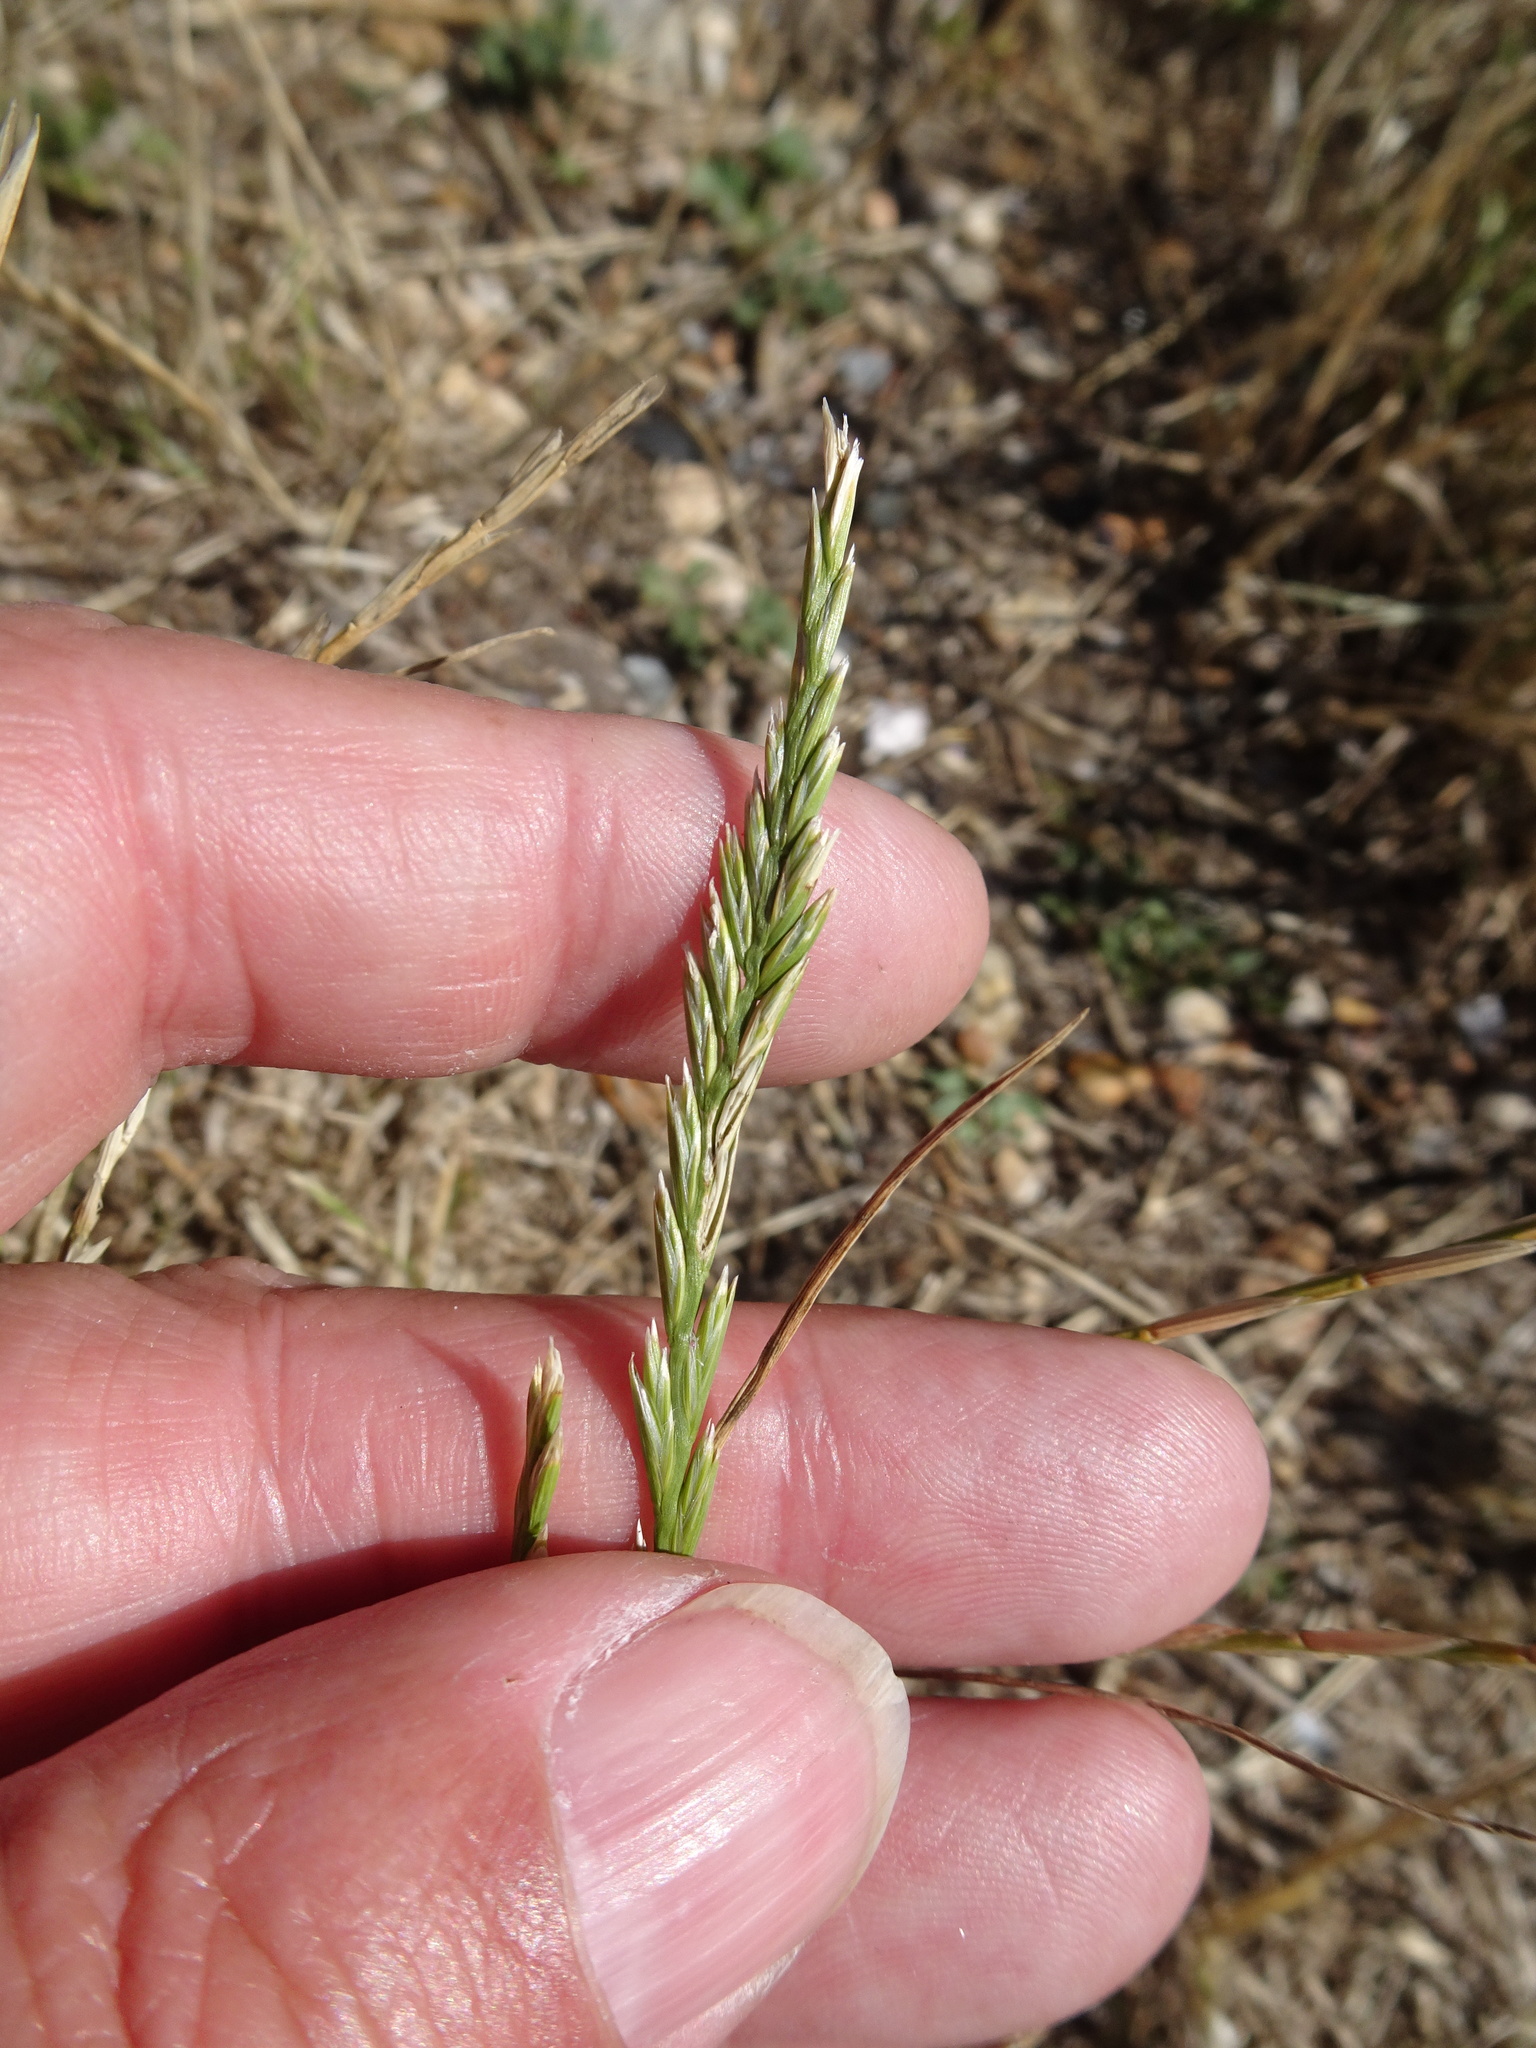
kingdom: Plantae
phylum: Tracheophyta
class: Liliopsida
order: Poales
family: Poaceae
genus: Lolium
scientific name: Lolium perenne
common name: Perennial ryegrass
